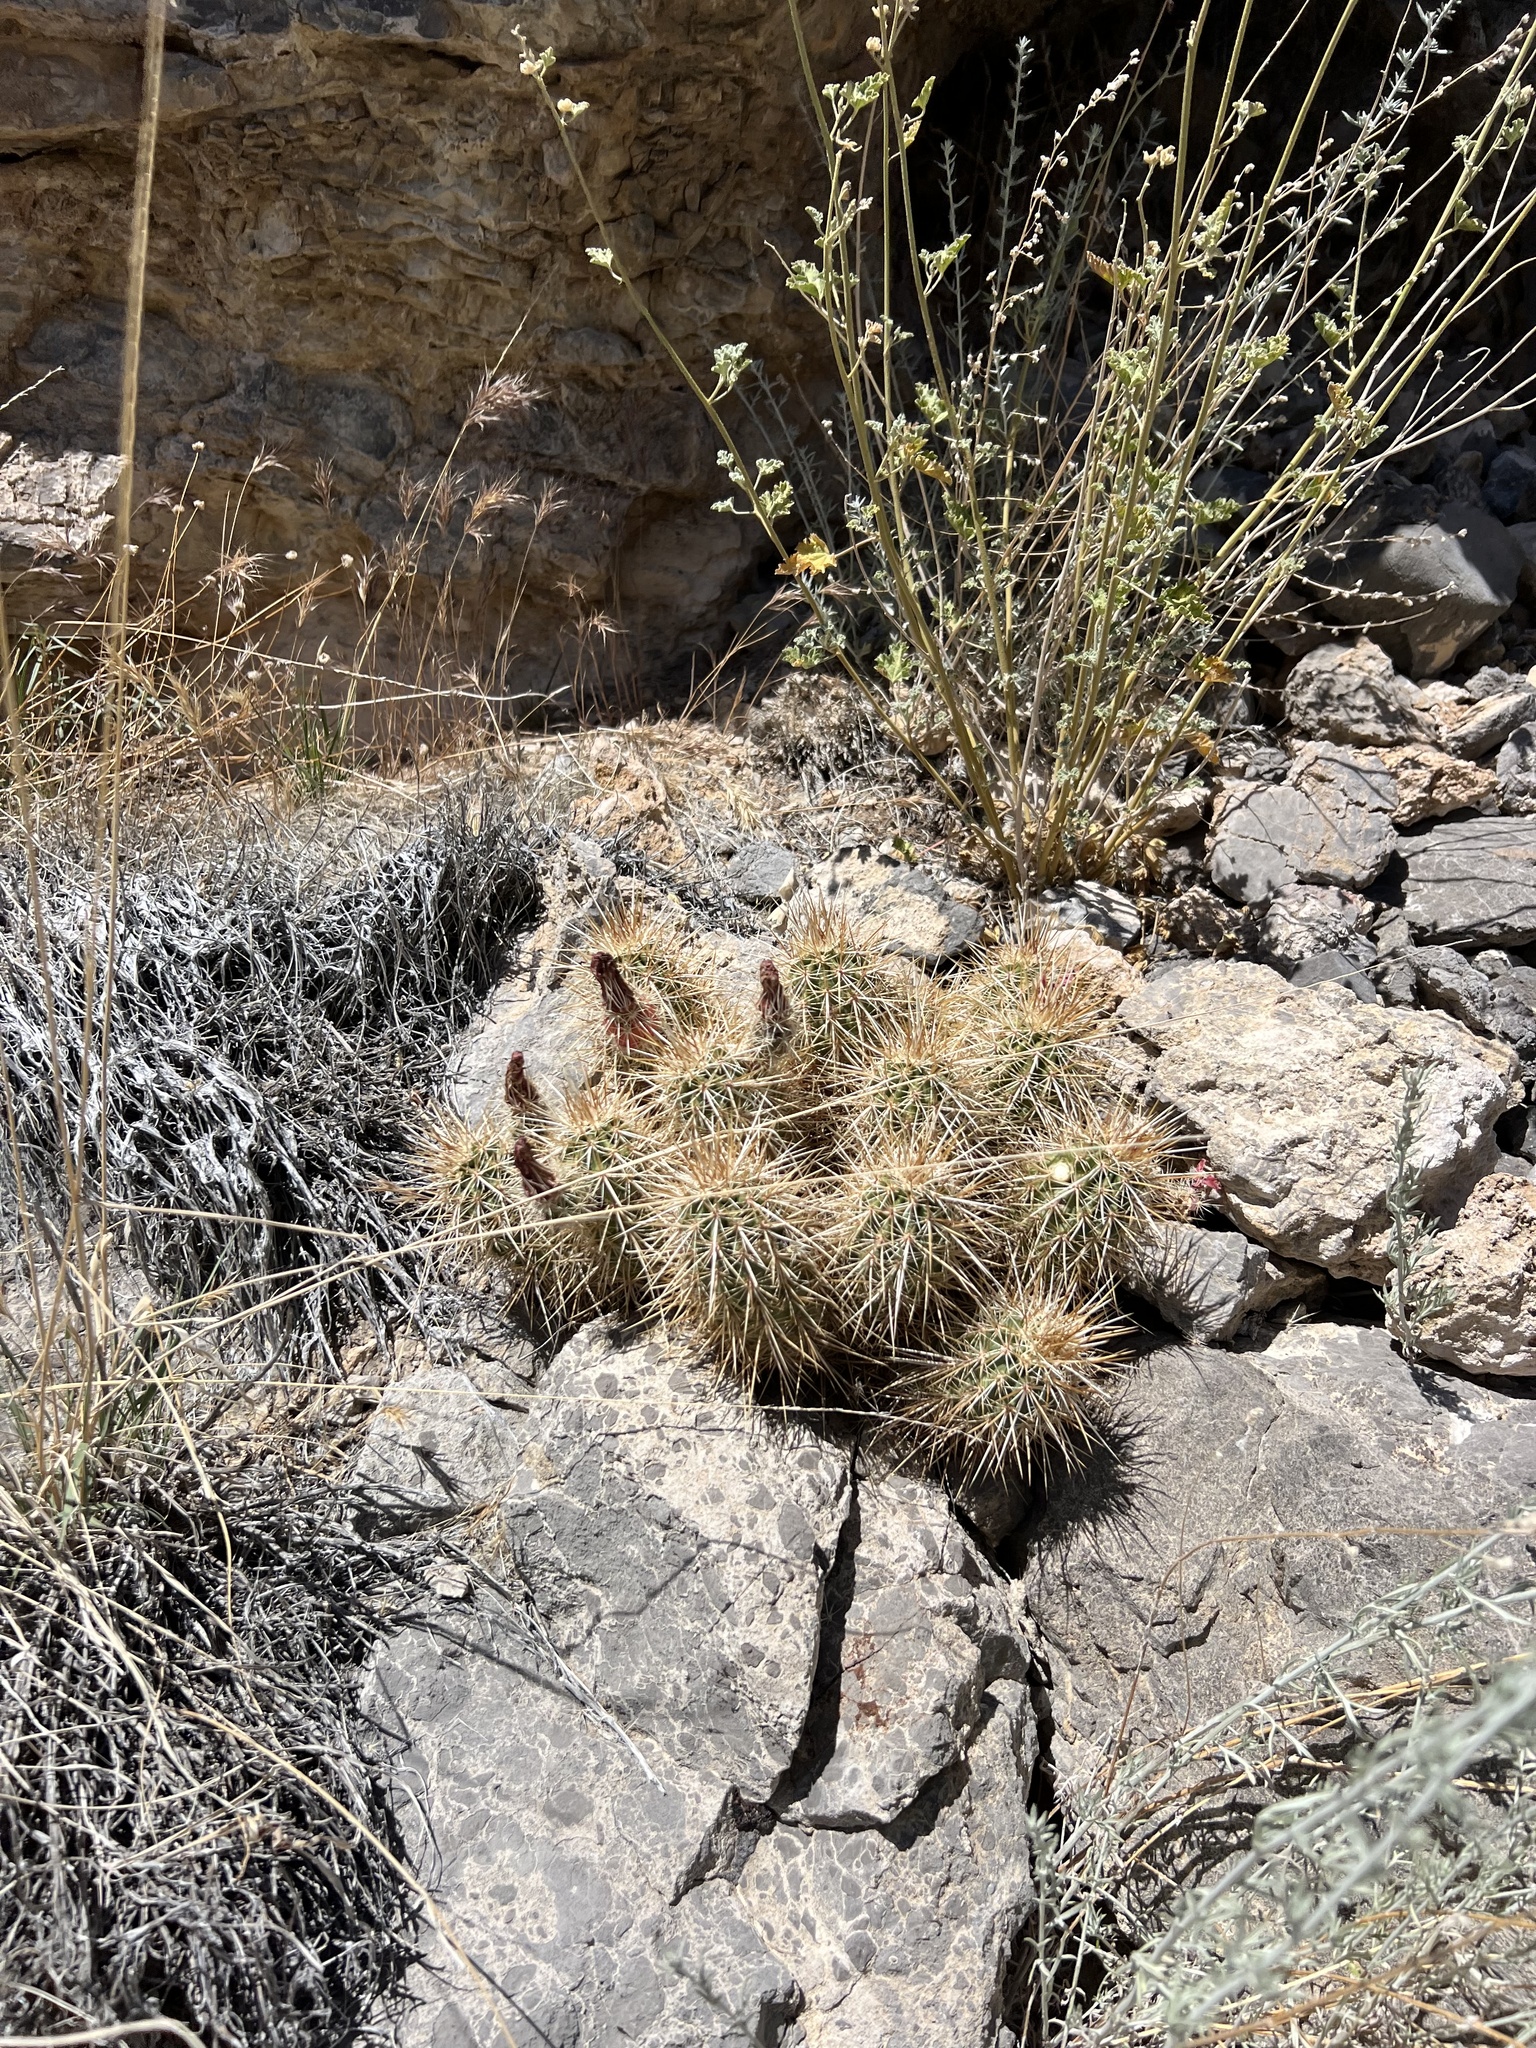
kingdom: Plantae
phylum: Tracheophyta
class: Magnoliopsida
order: Caryophyllales
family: Cactaceae
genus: Echinocereus
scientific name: Echinocereus engelmannii
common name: Engelmann's hedgehog cactus
